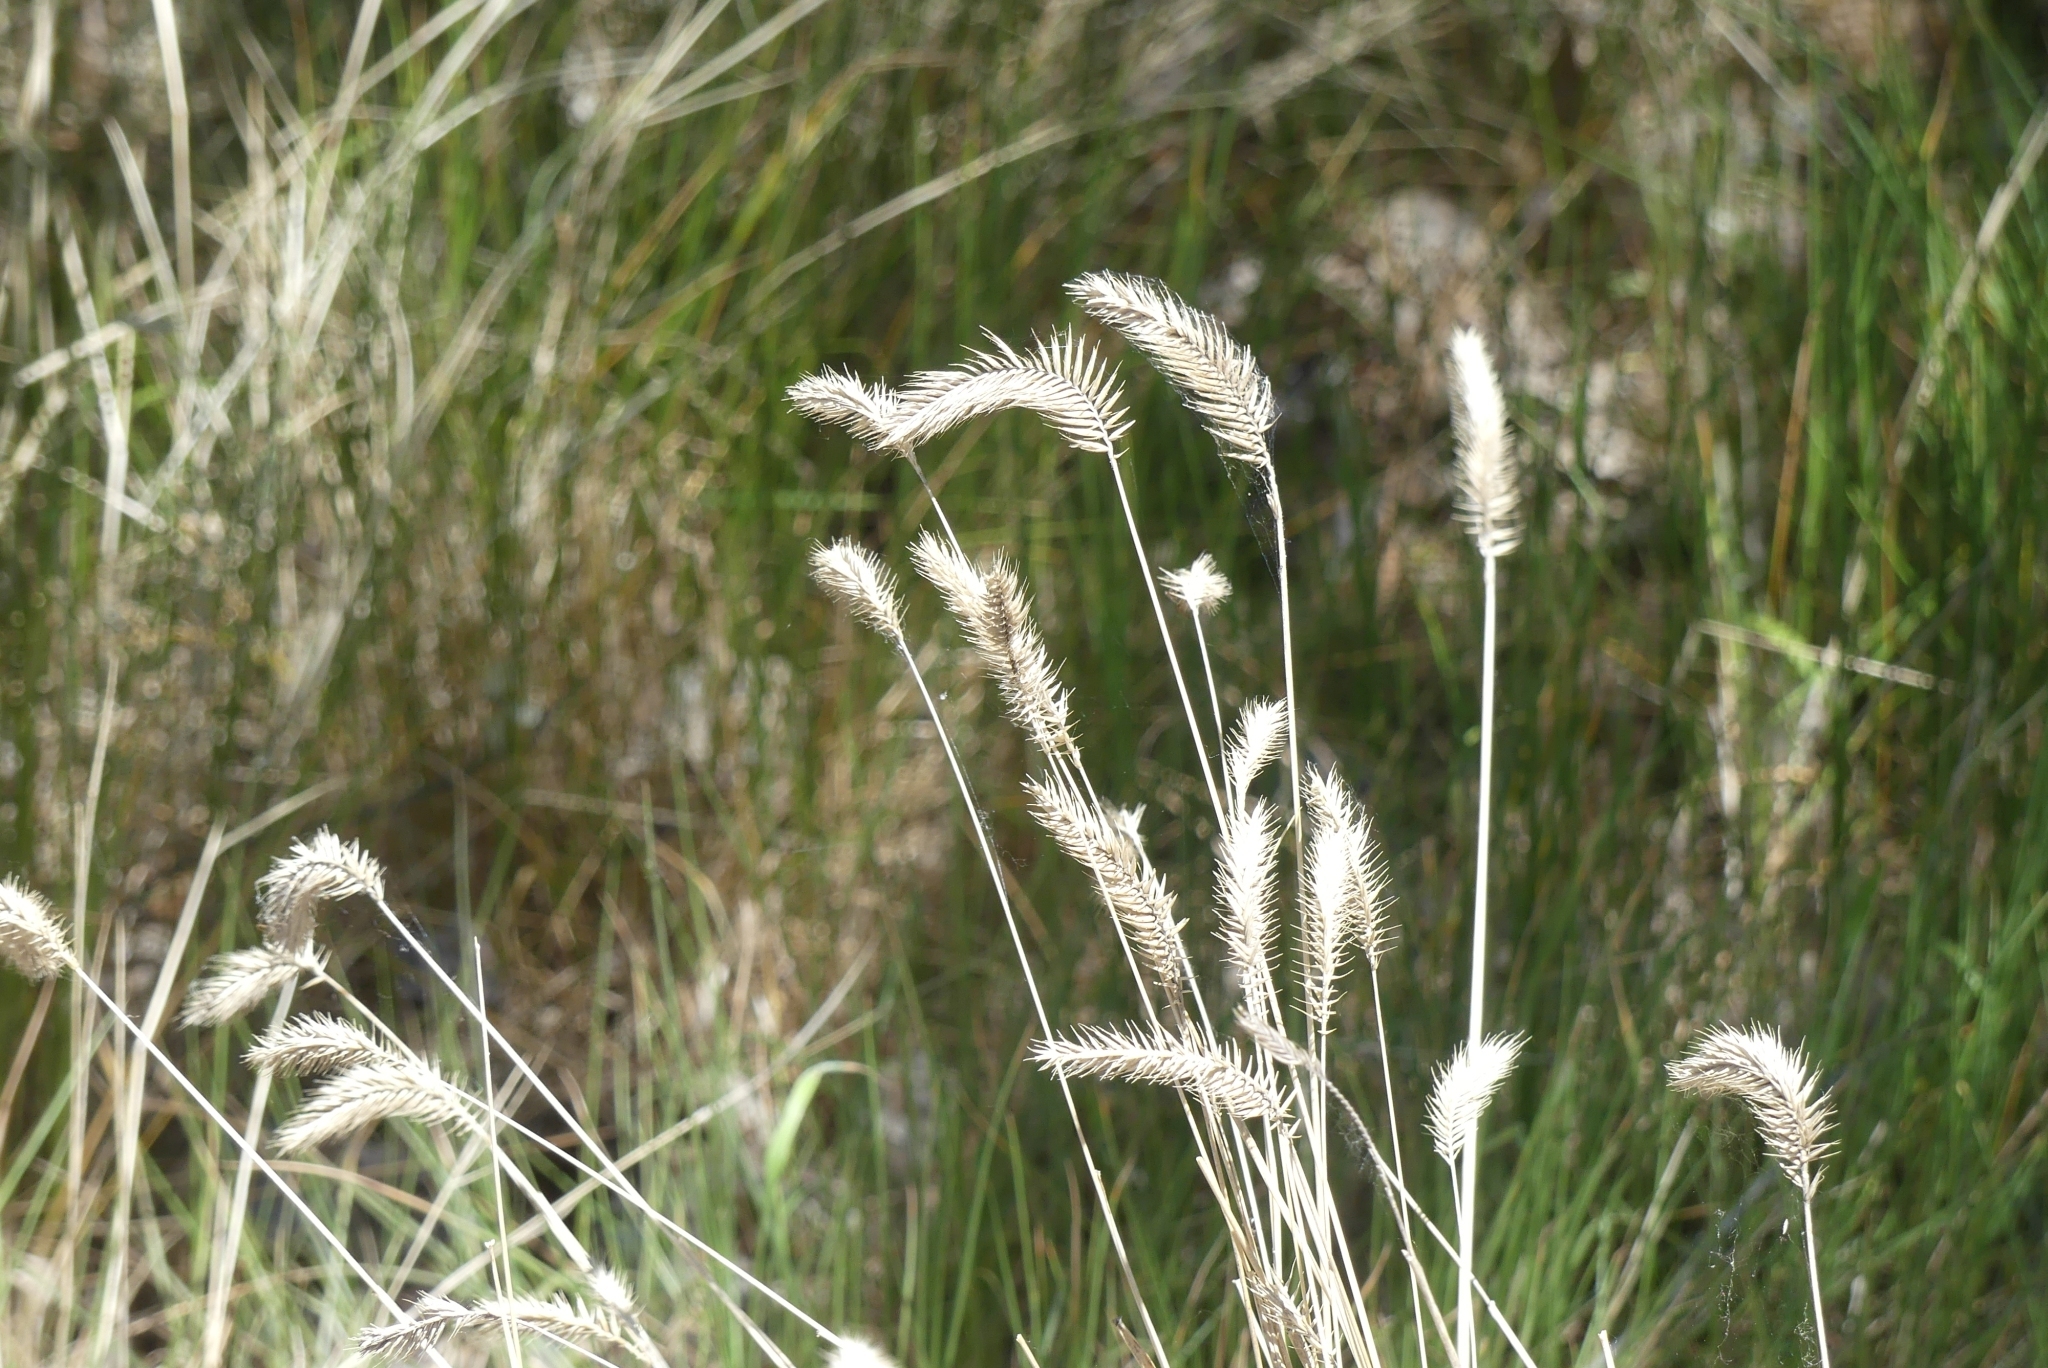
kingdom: Plantae
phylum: Tracheophyta
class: Liliopsida
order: Poales
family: Poaceae
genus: Agropyron
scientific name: Agropyron cristatum
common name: Crested wheatgrass
